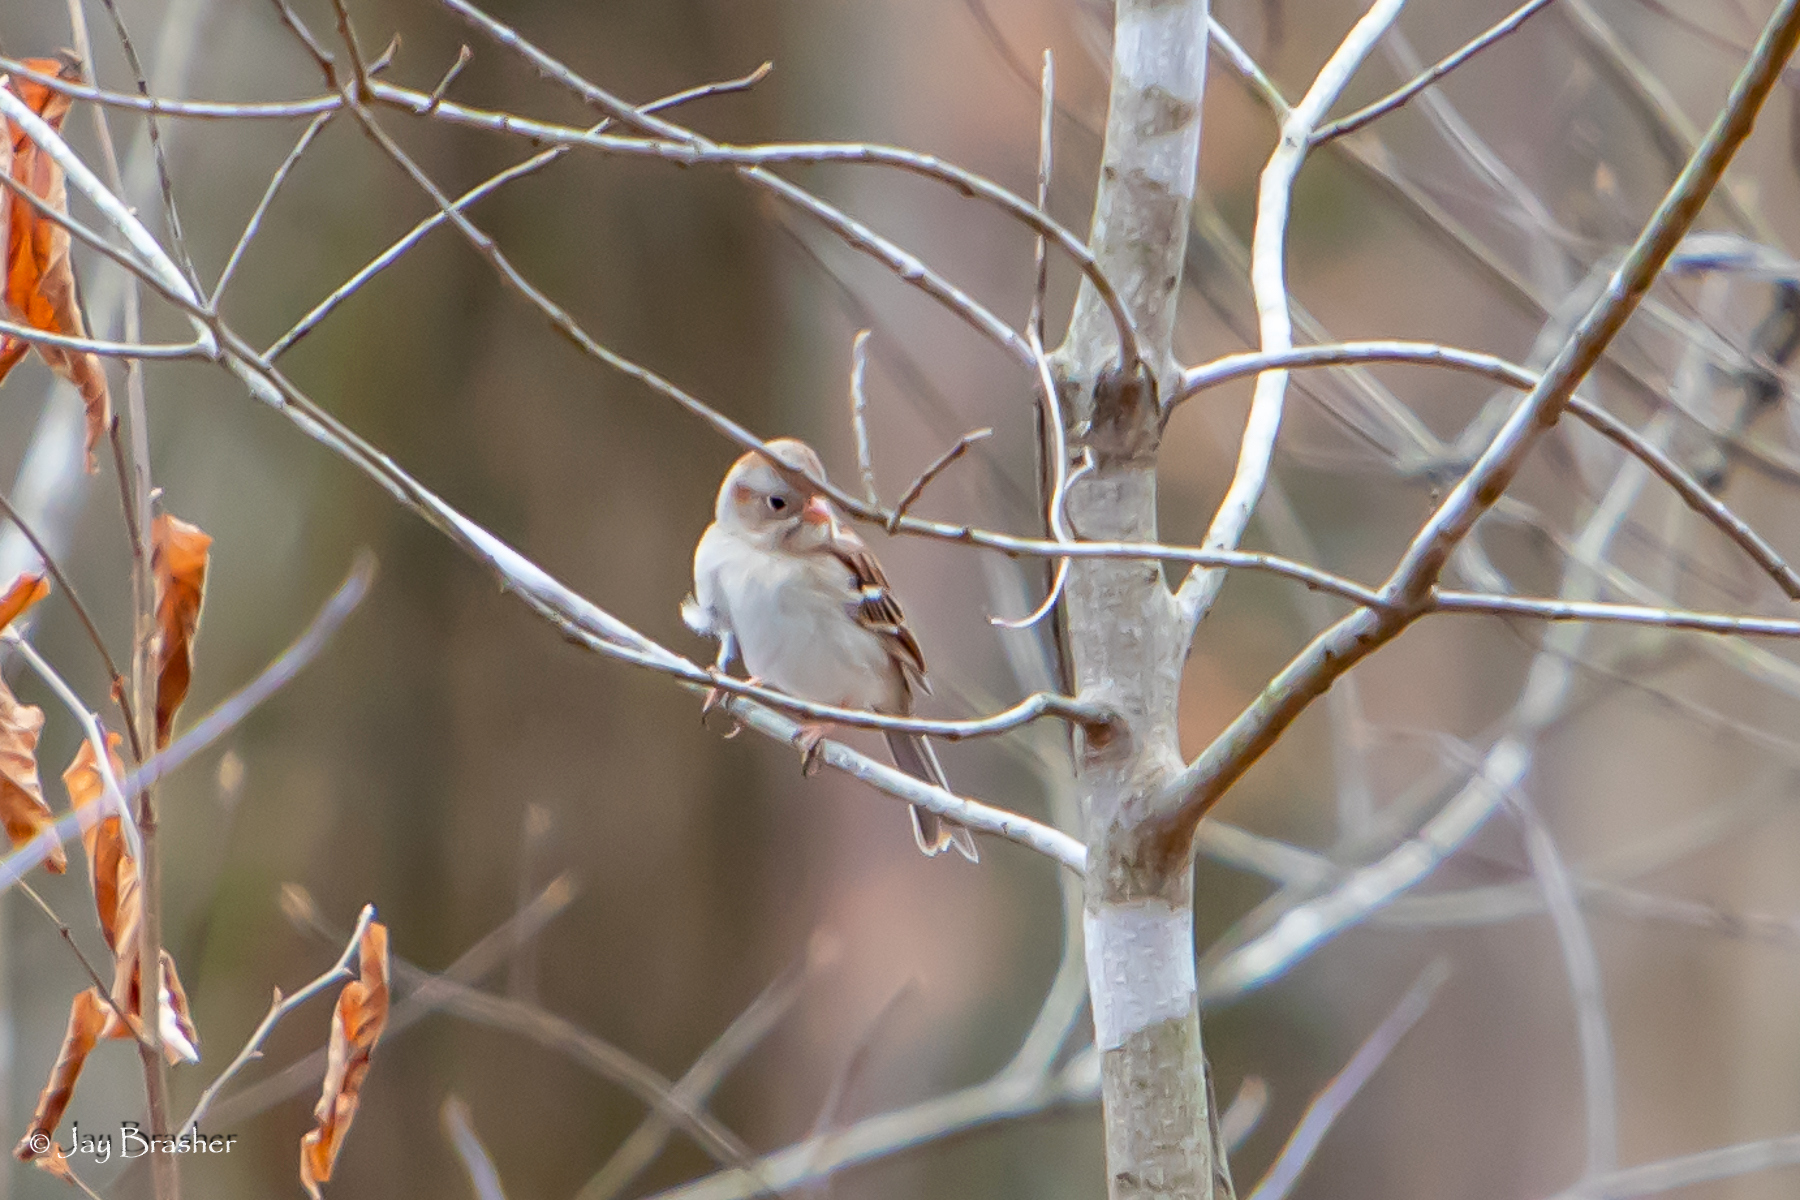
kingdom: Animalia
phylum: Chordata
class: Aves
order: Passeriformes
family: Passerellidae
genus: Spizella
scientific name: Spizella pusilla
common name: Field sparrow
